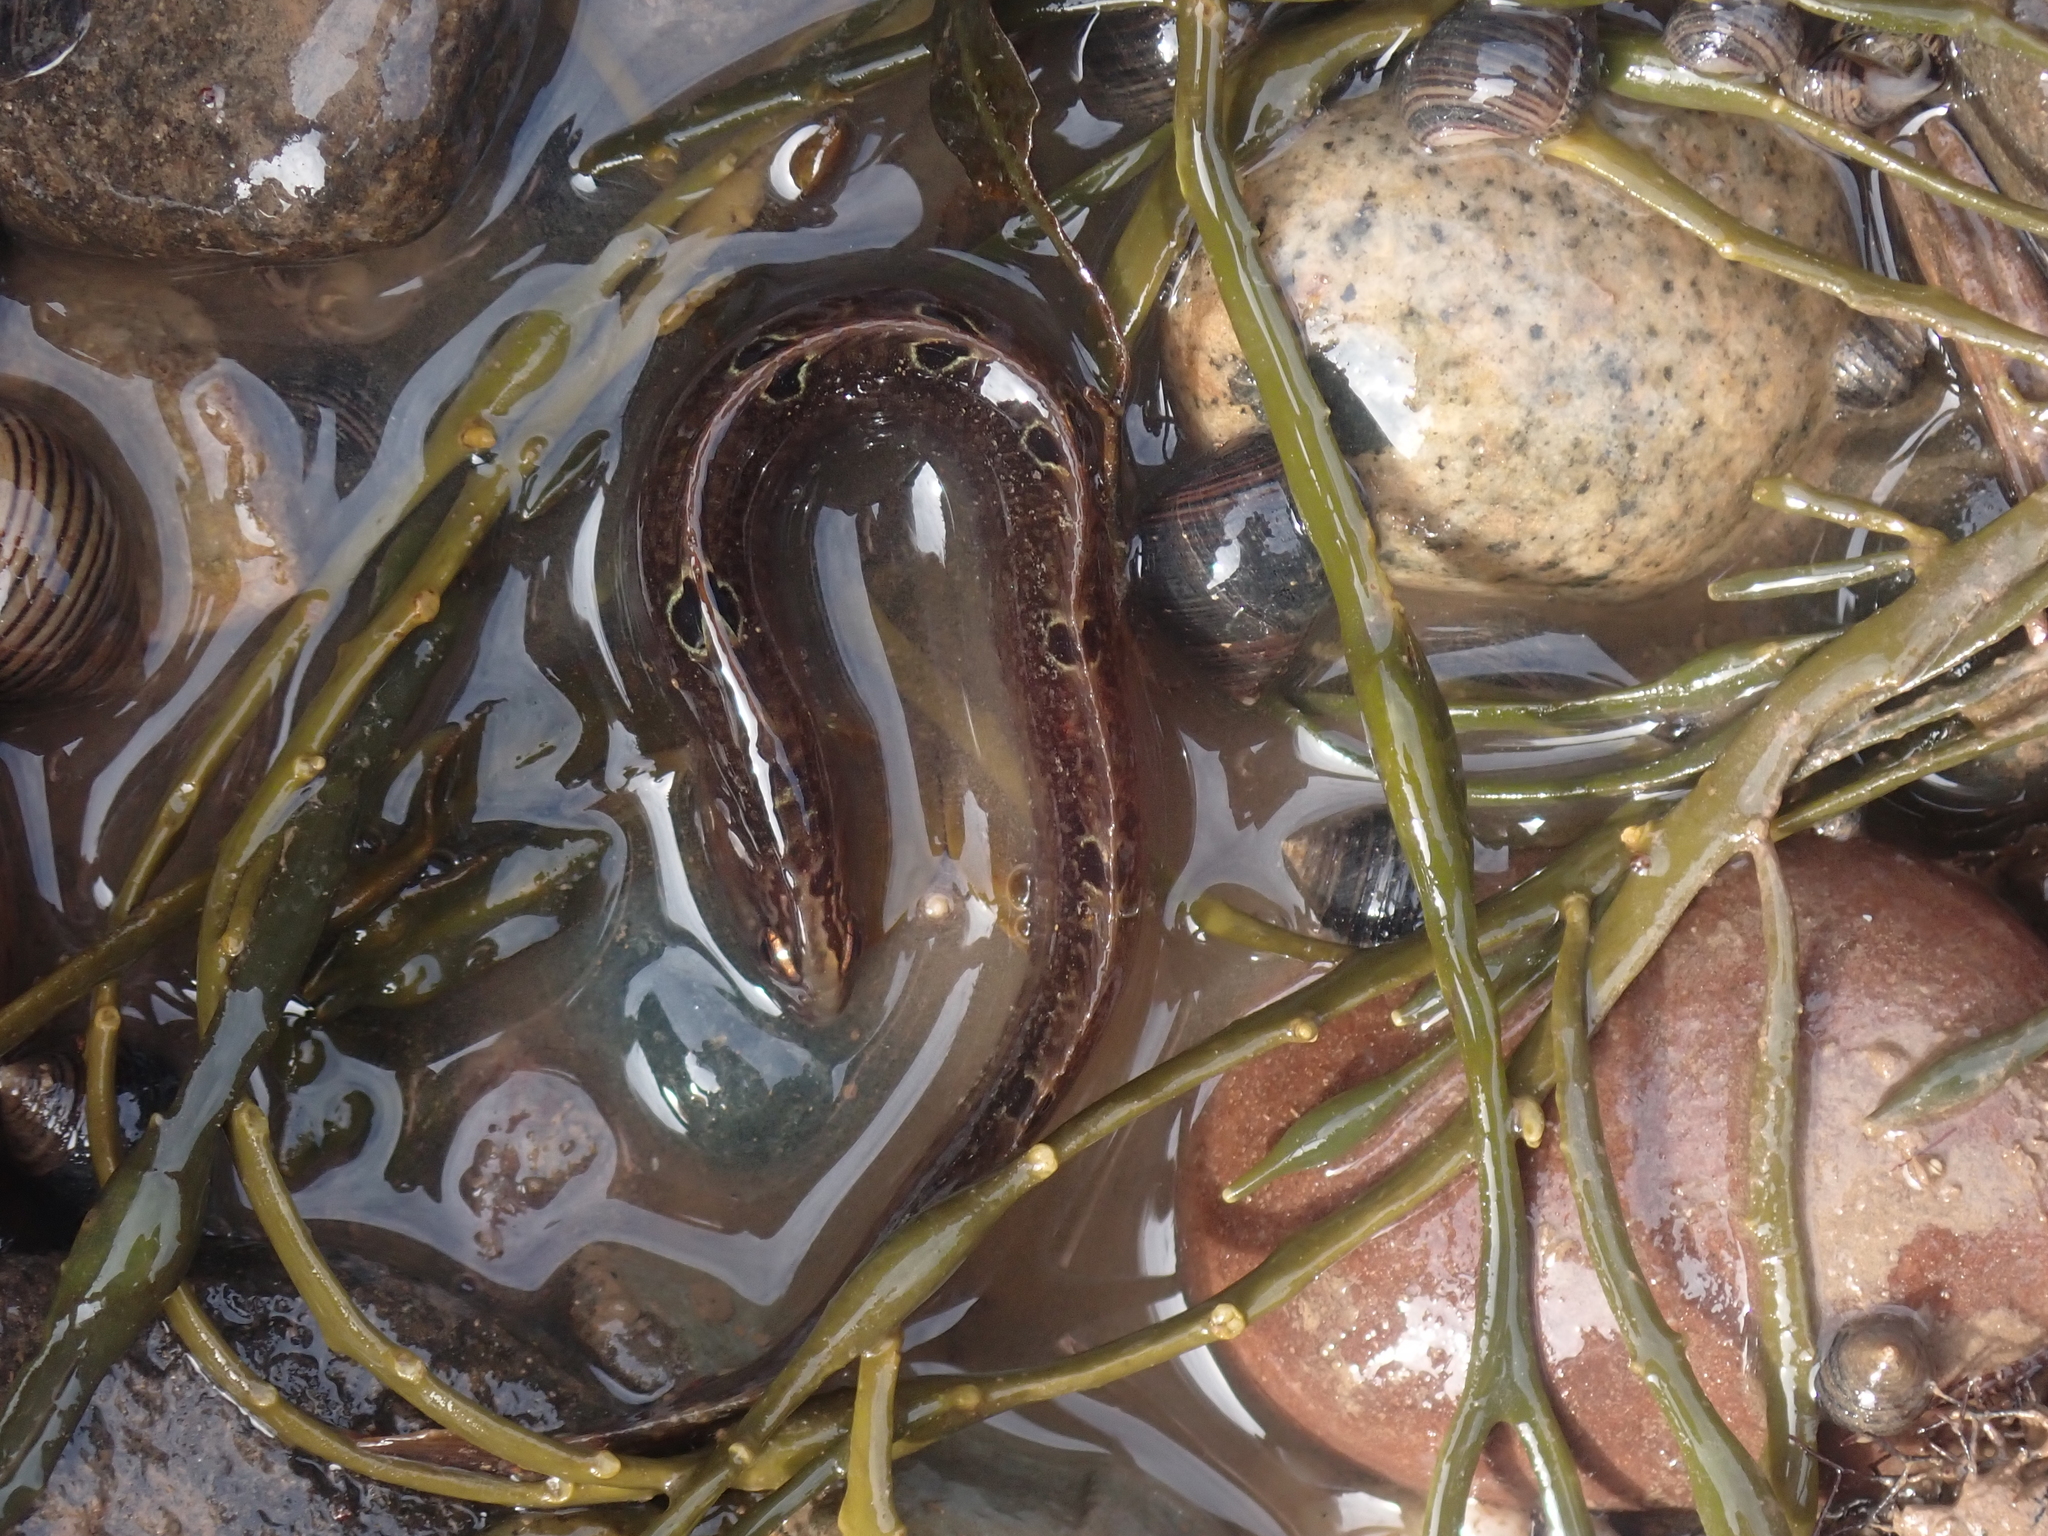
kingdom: Animalia
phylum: Chordata
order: Perciformes
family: Pholidae
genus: Pholis
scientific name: Pholis gunnellus
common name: Butterfish
